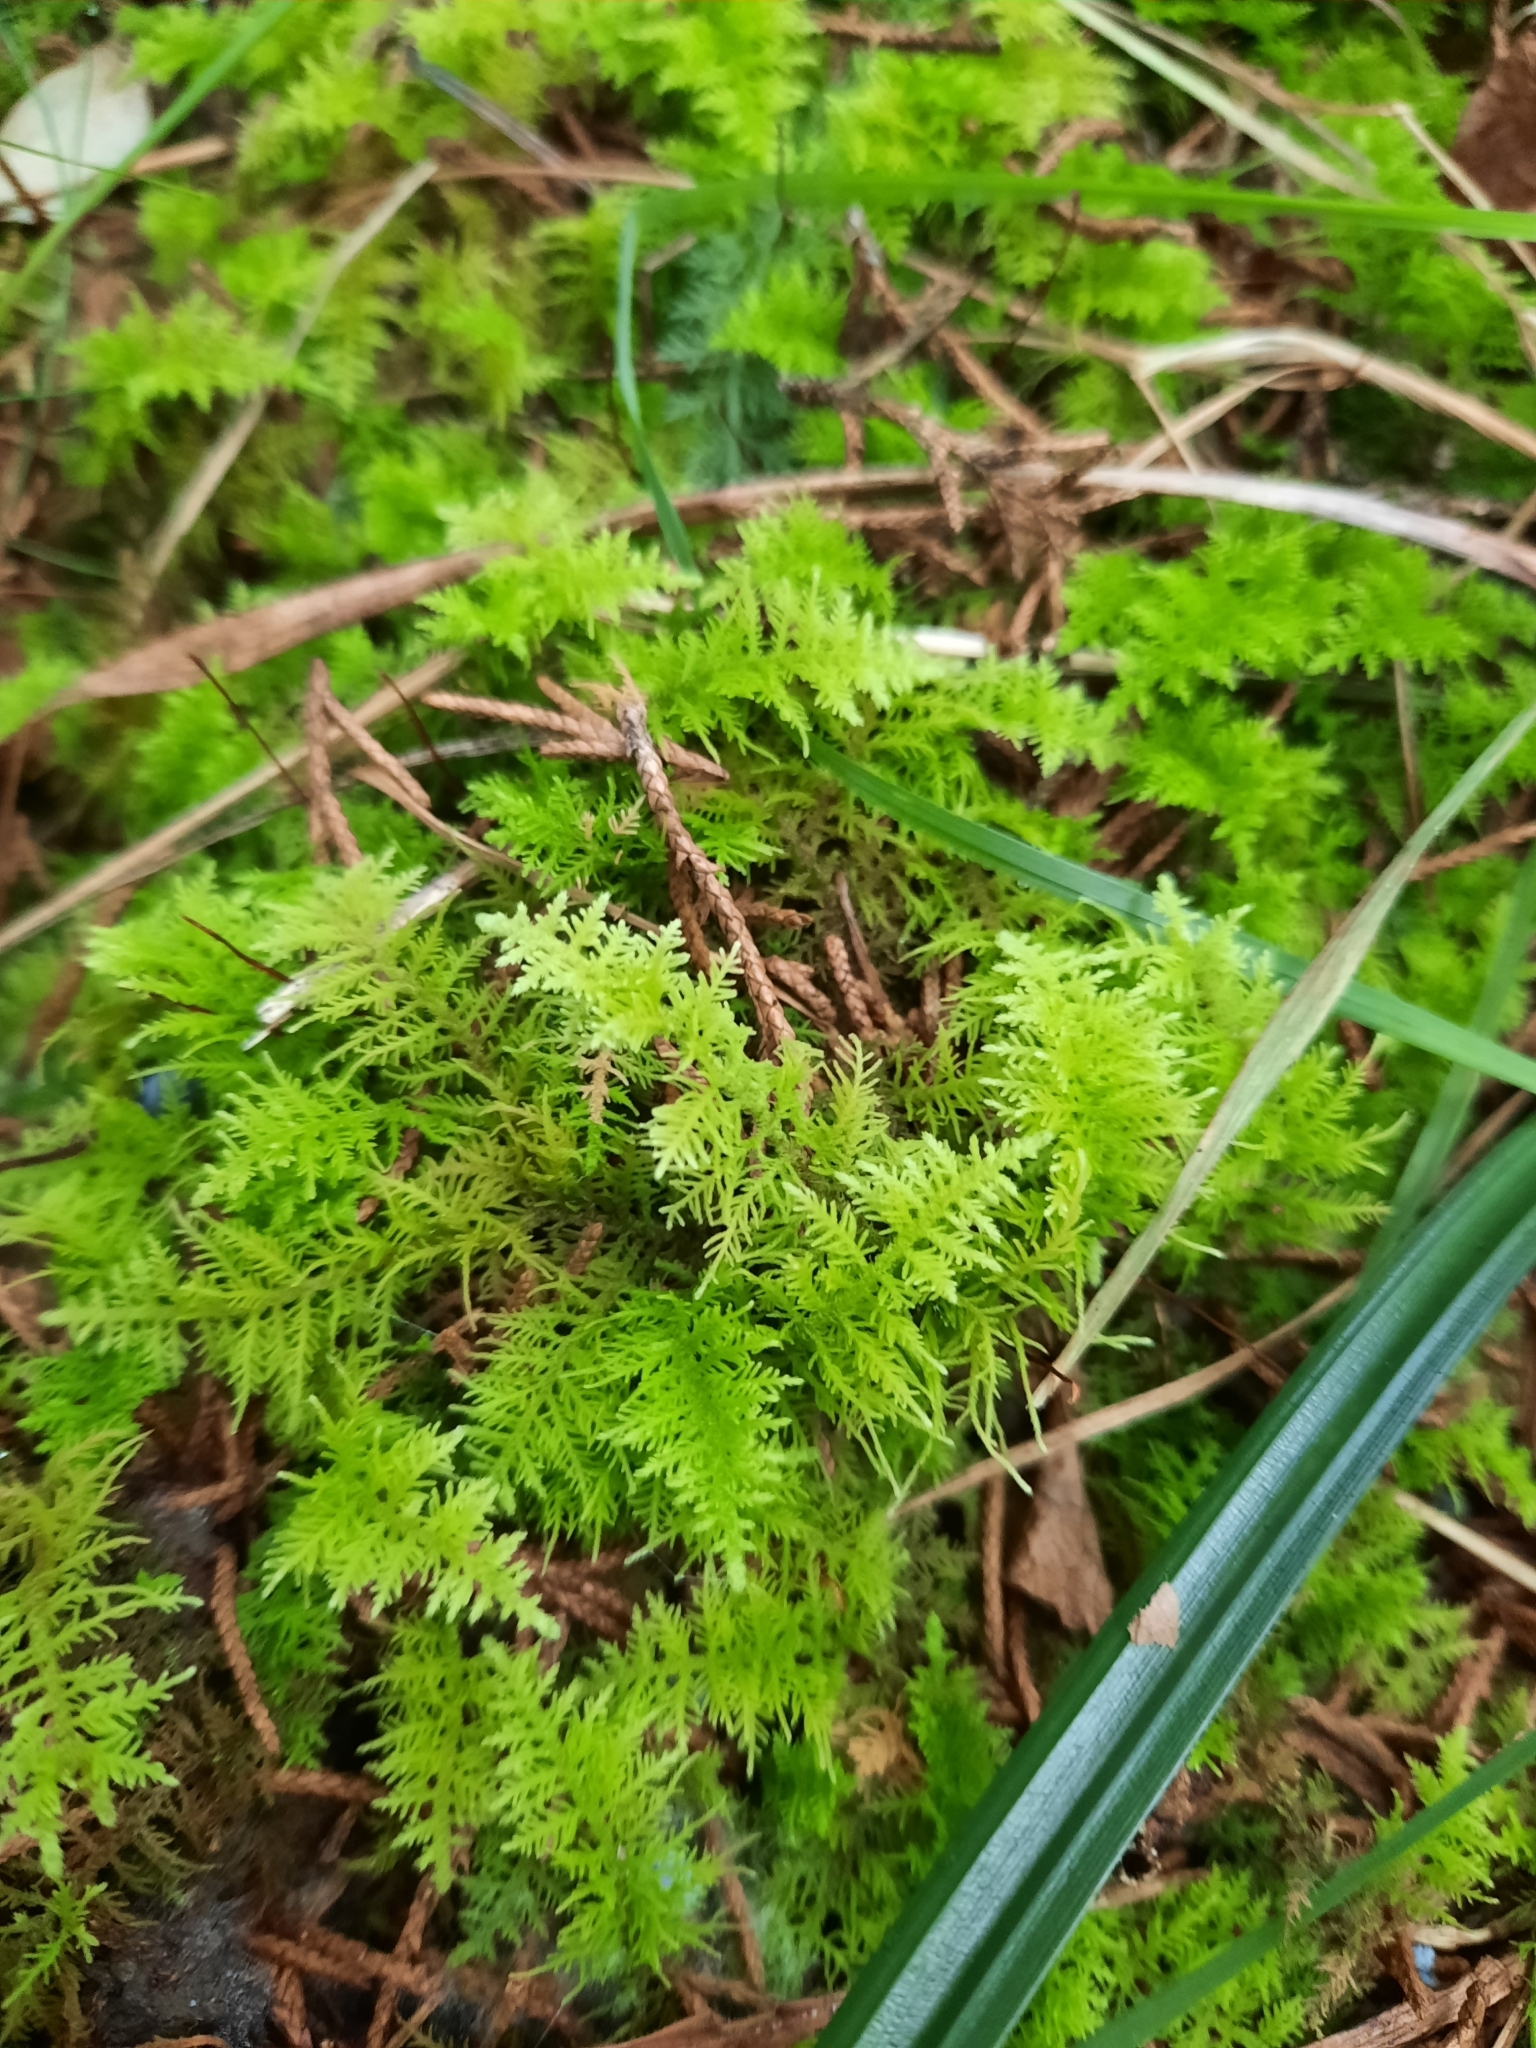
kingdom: Plantae
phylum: Bryophyta
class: Bryopsida
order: Hypnales
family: Thuidiaceae
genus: Thuidium
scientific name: Thuidium delicatulum
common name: Delicate fern moss
